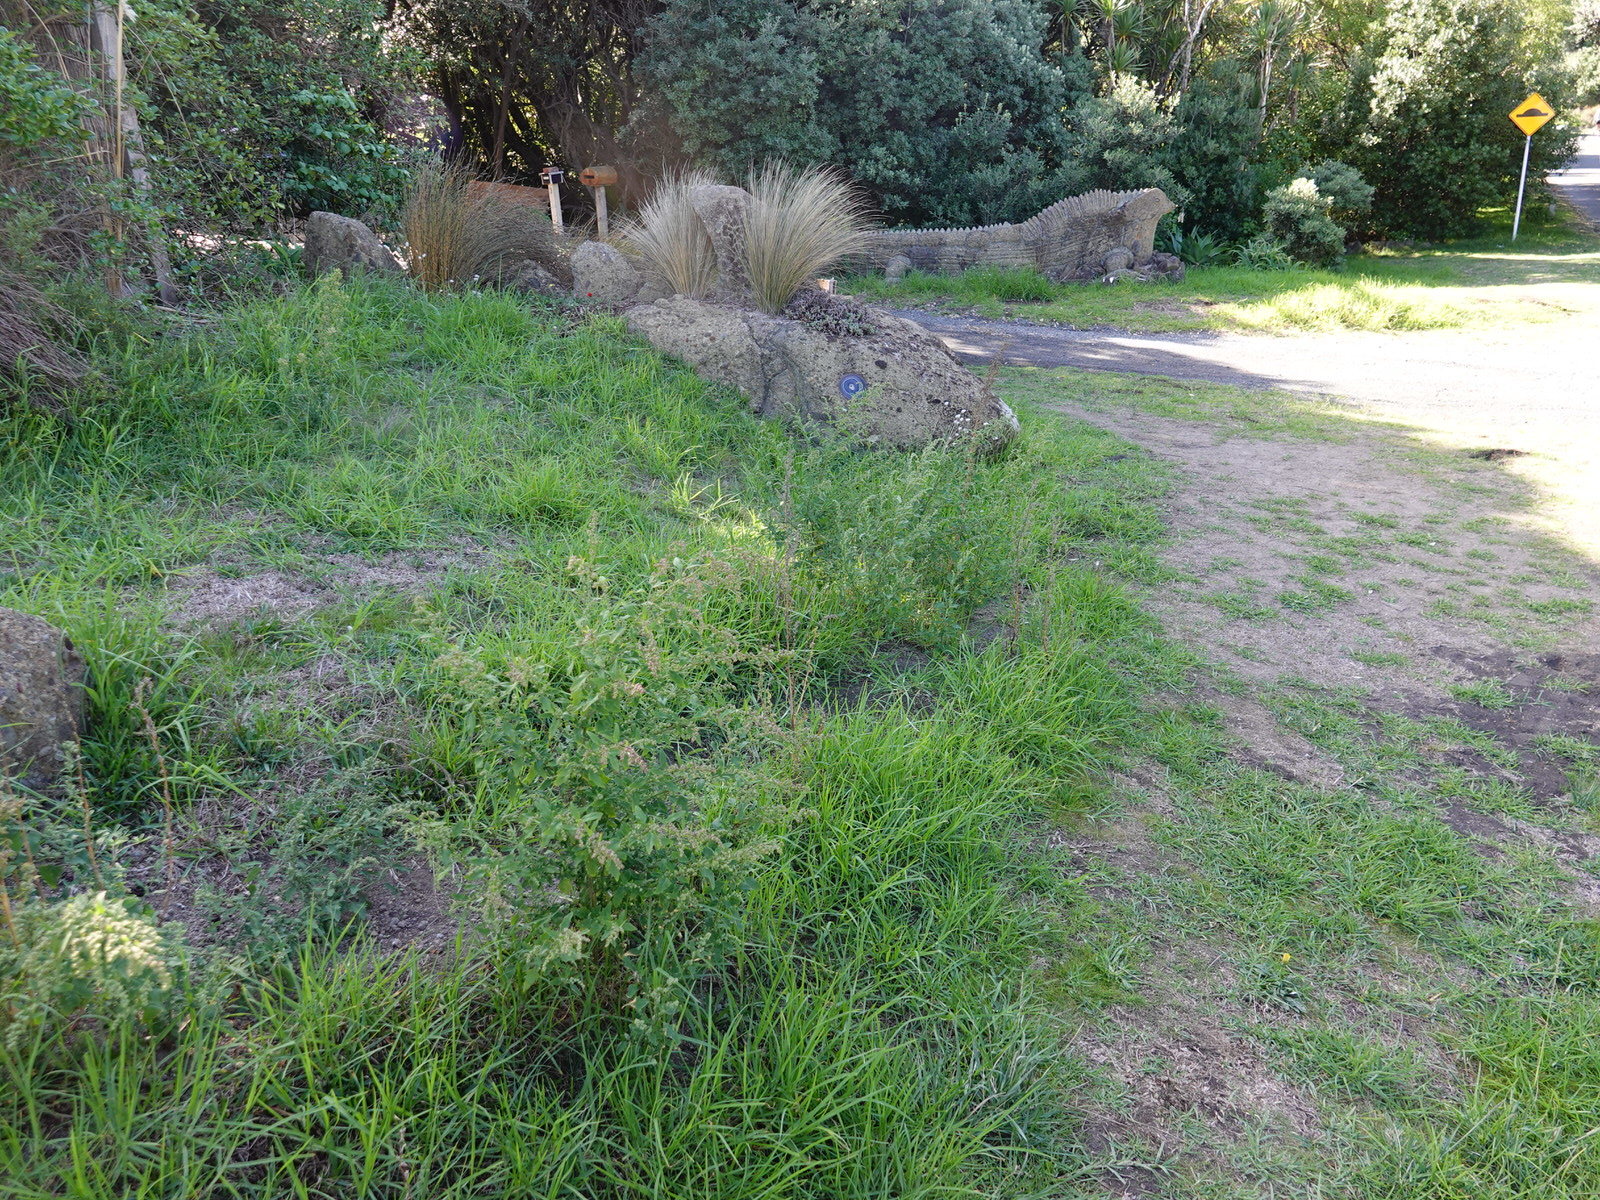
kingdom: Plantae
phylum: Tracheophyta
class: Magnoliopsida
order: Caryophyllales
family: Amaranthaceae
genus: Chenopodium
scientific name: Chenopodium album
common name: Fat-hen
